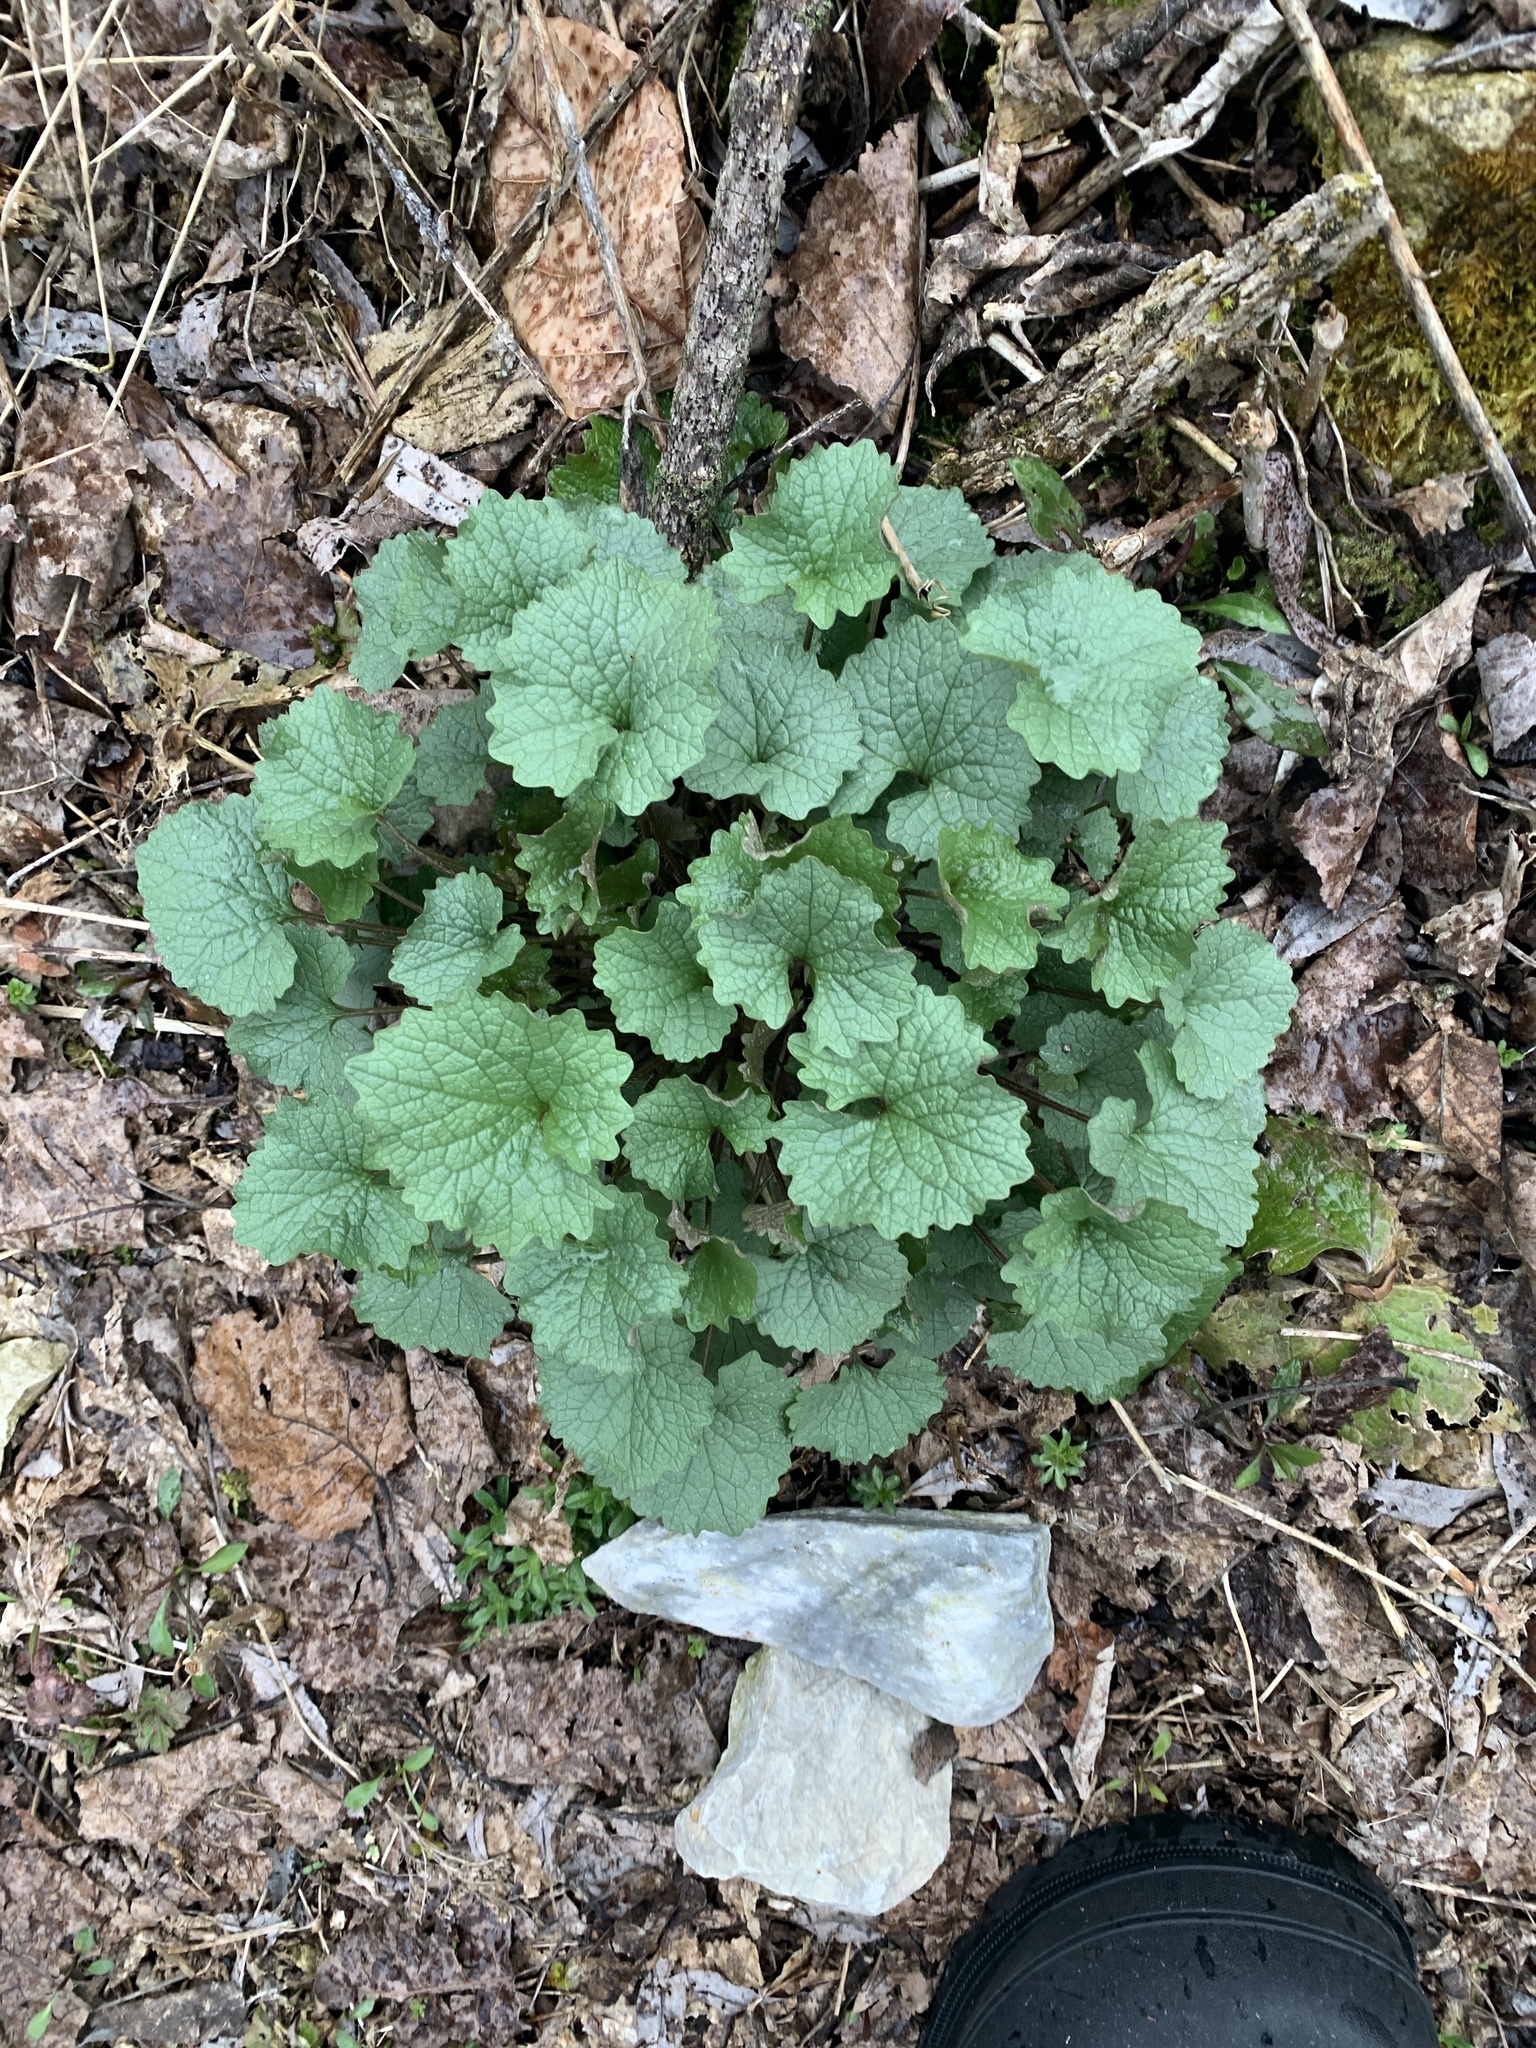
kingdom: Plantae
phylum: Tracheophyta
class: Magnoliopsida
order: Brassicales
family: Brassicaceae
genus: Alliaria
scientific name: Alliaria petiolata
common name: Garlic mustard
